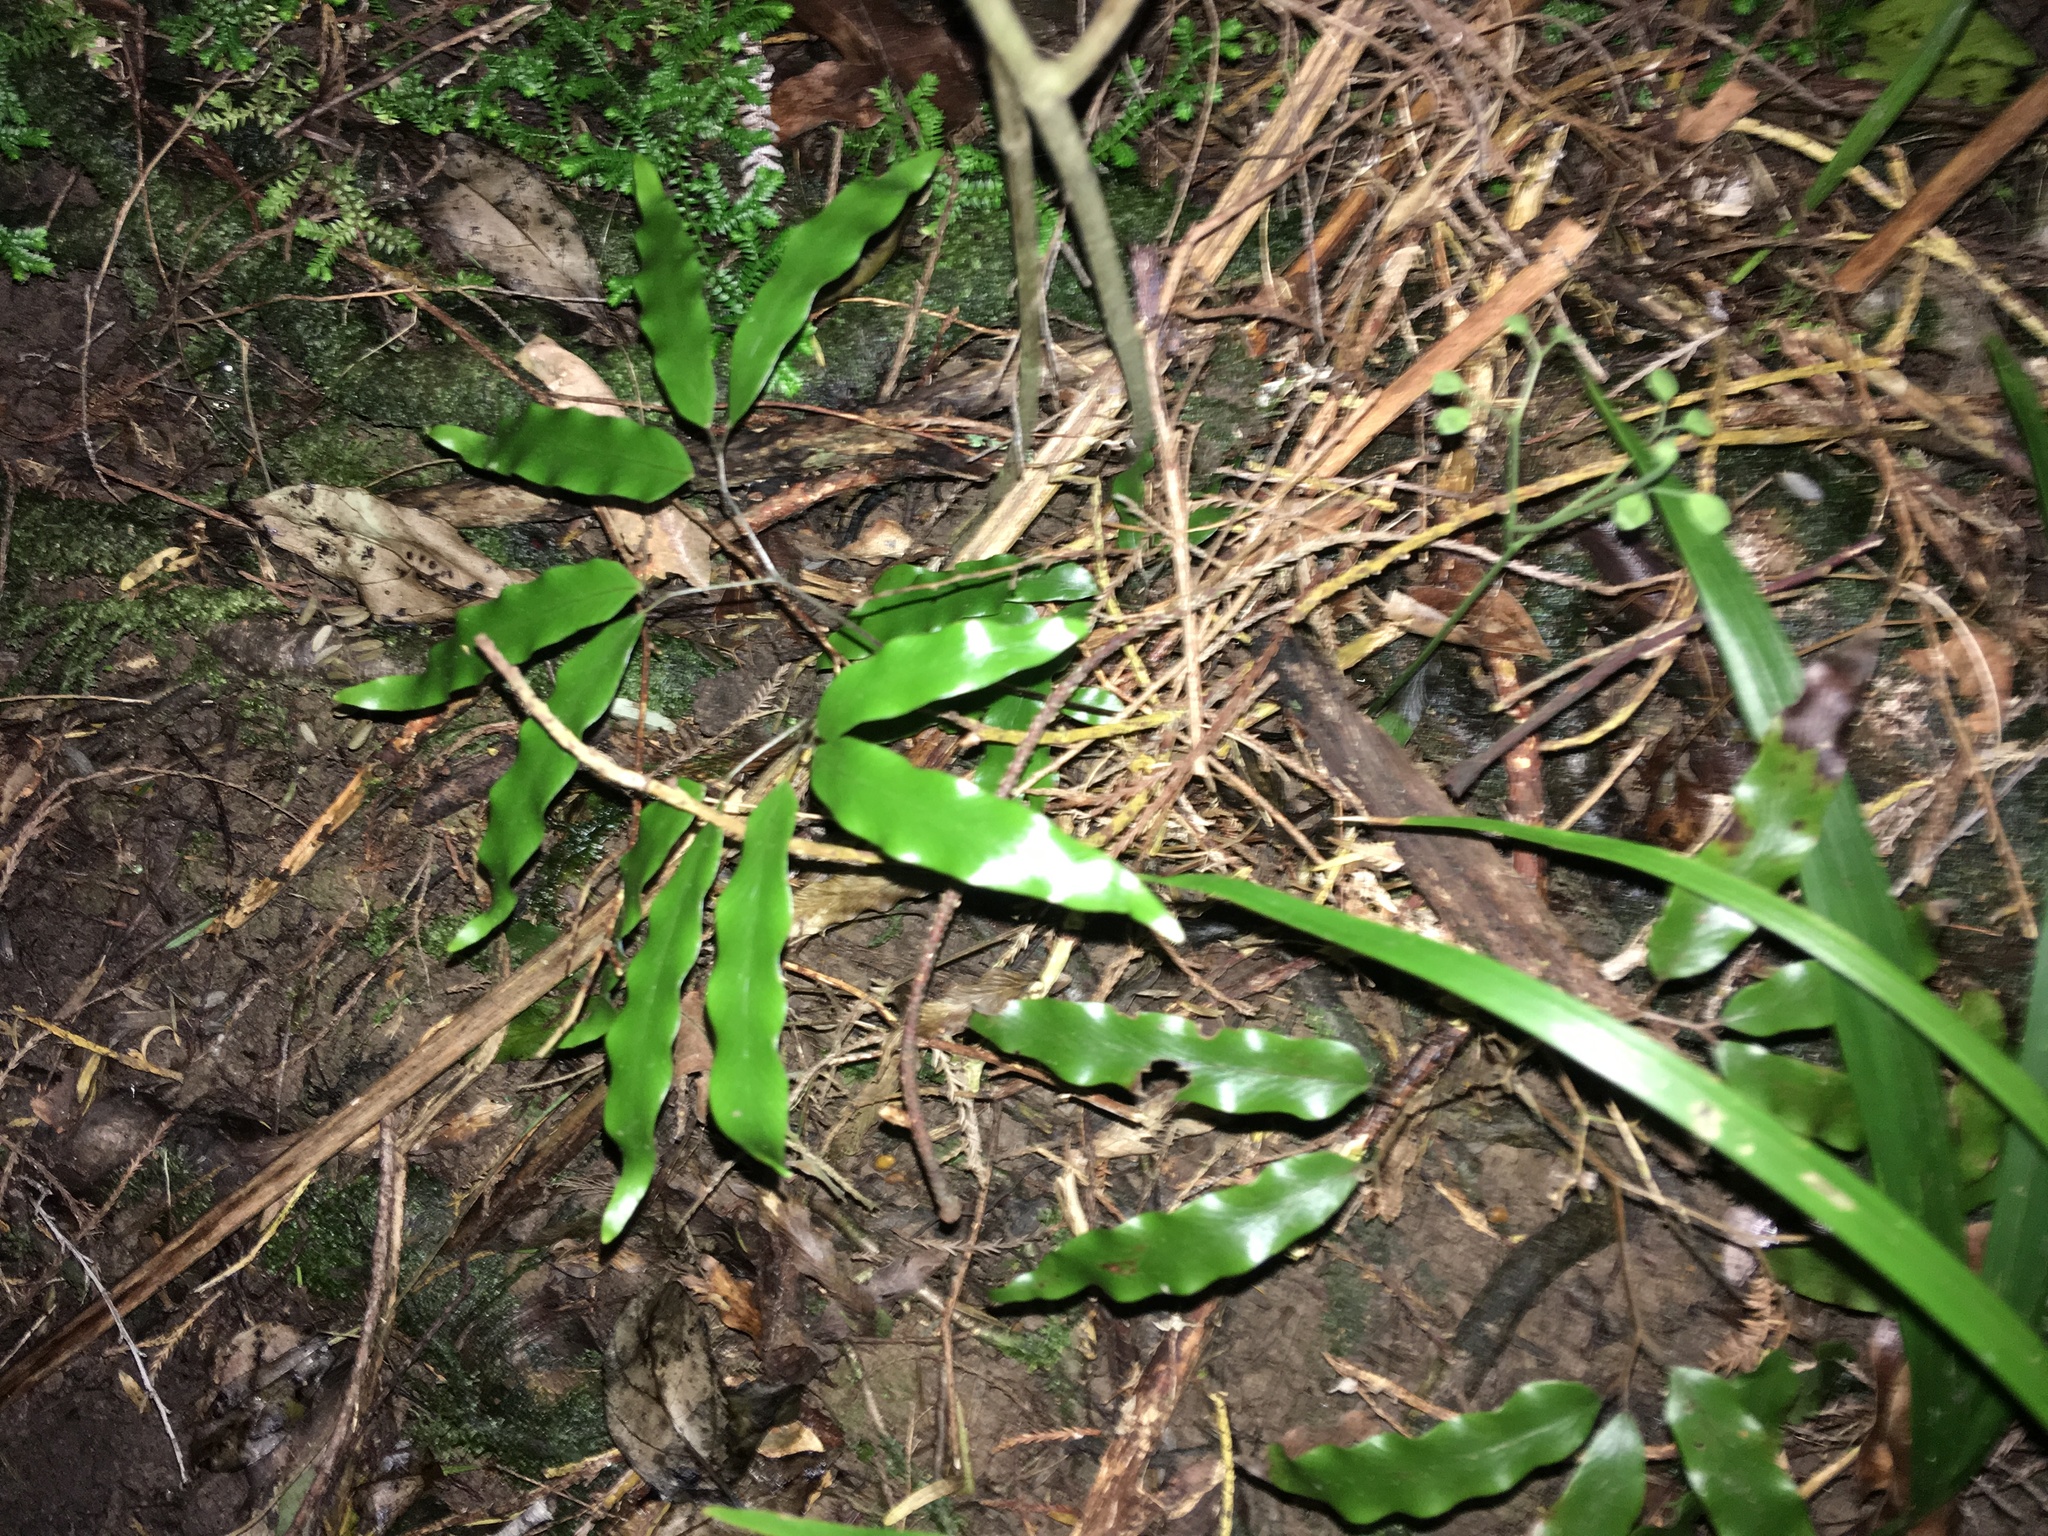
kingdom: Plantae
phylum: Tracheophyta
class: Polypodiopsida
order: Schizaeales
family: Lygodiaceae
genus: Lygodium
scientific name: Lygodium articulatum
